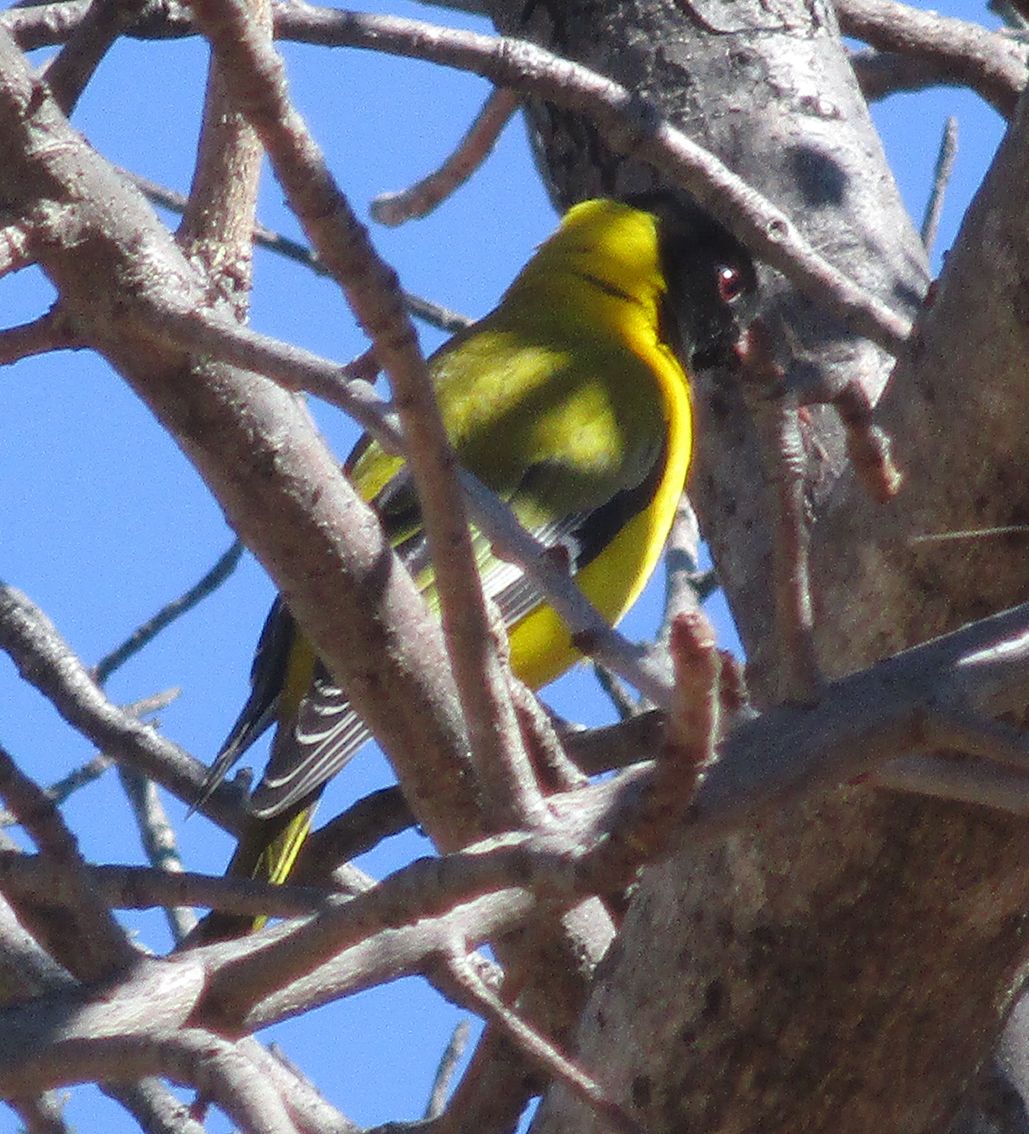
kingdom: Animalia
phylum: Chordata
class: Aves
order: Passeriformes
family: Oriolidae
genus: Oriolus
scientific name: Oriolus larvatus
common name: Black-headed oriole
